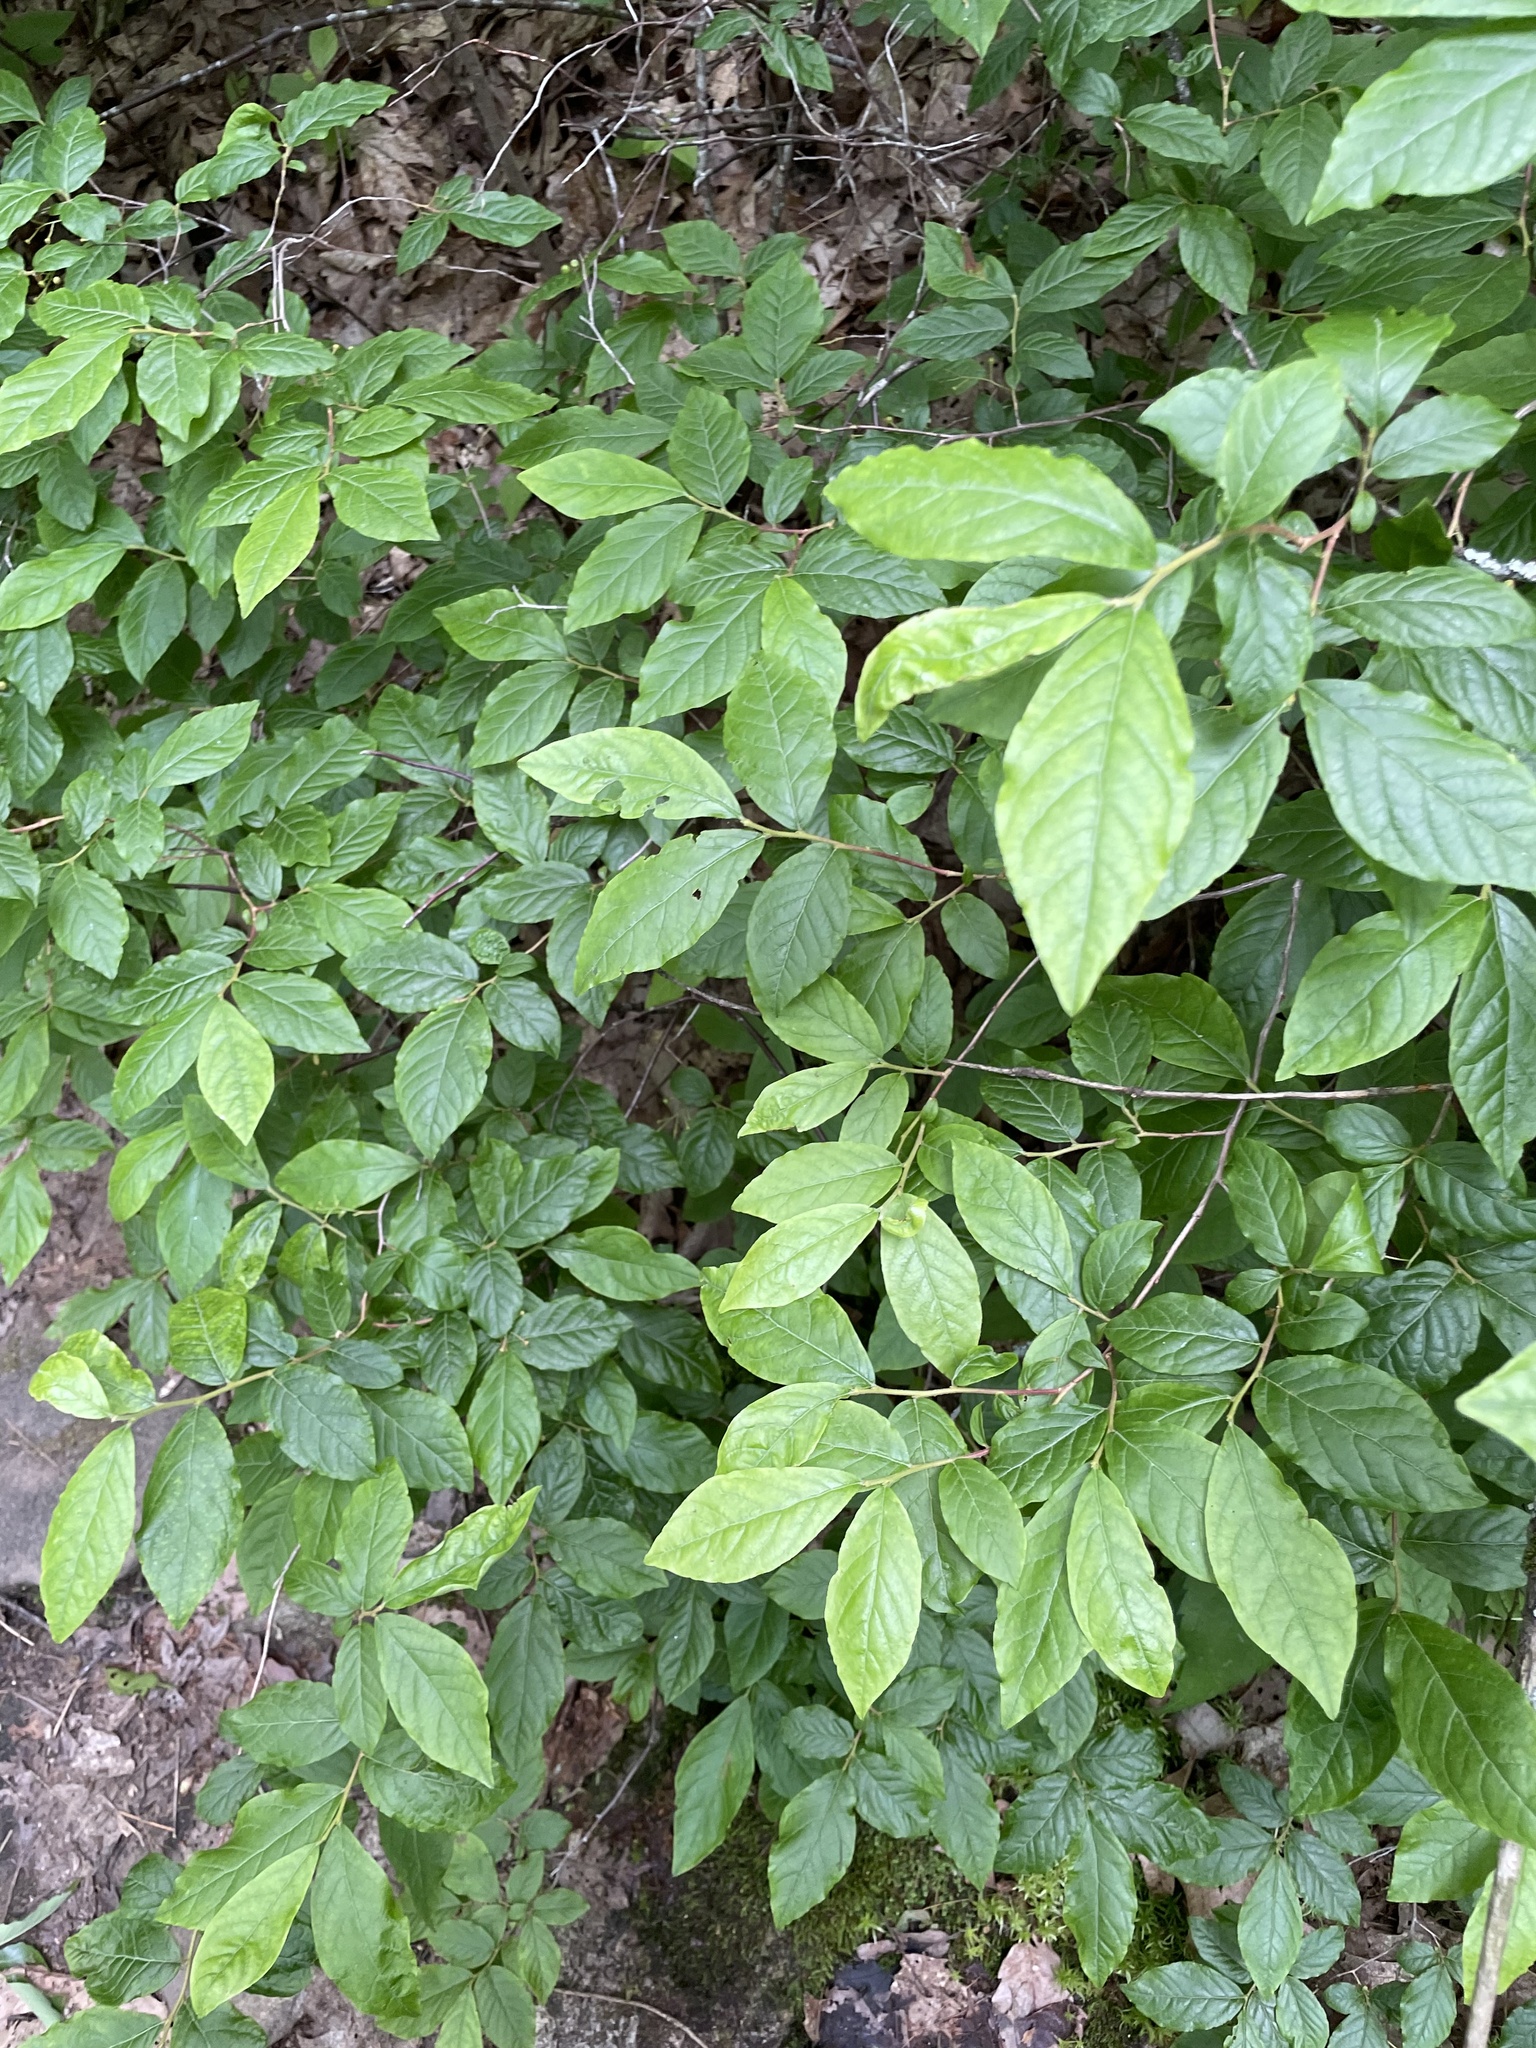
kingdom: Plantae
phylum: Tracheophyta
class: Magnoliopsida
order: Santalales
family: Cervantesiaceae
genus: Pyrularia
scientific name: Pyrularia pubera
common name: Oilnut
